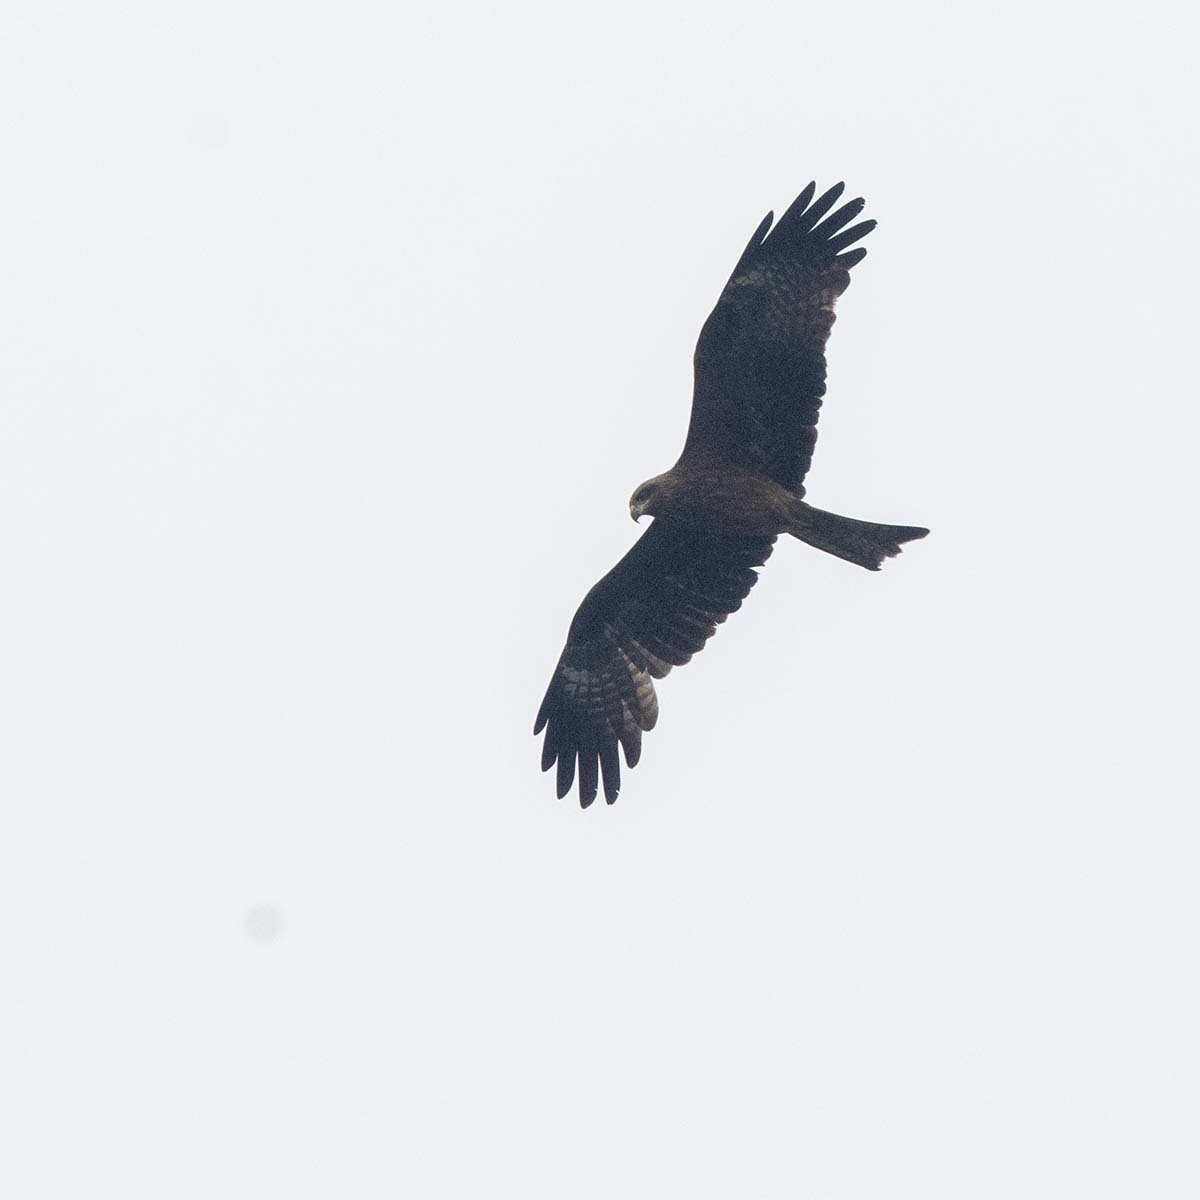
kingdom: Animalia
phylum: Chordata
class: Aves
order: Accipitriformes
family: Accipitridae
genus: Milvus
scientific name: Milvus migrans
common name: Black kite
